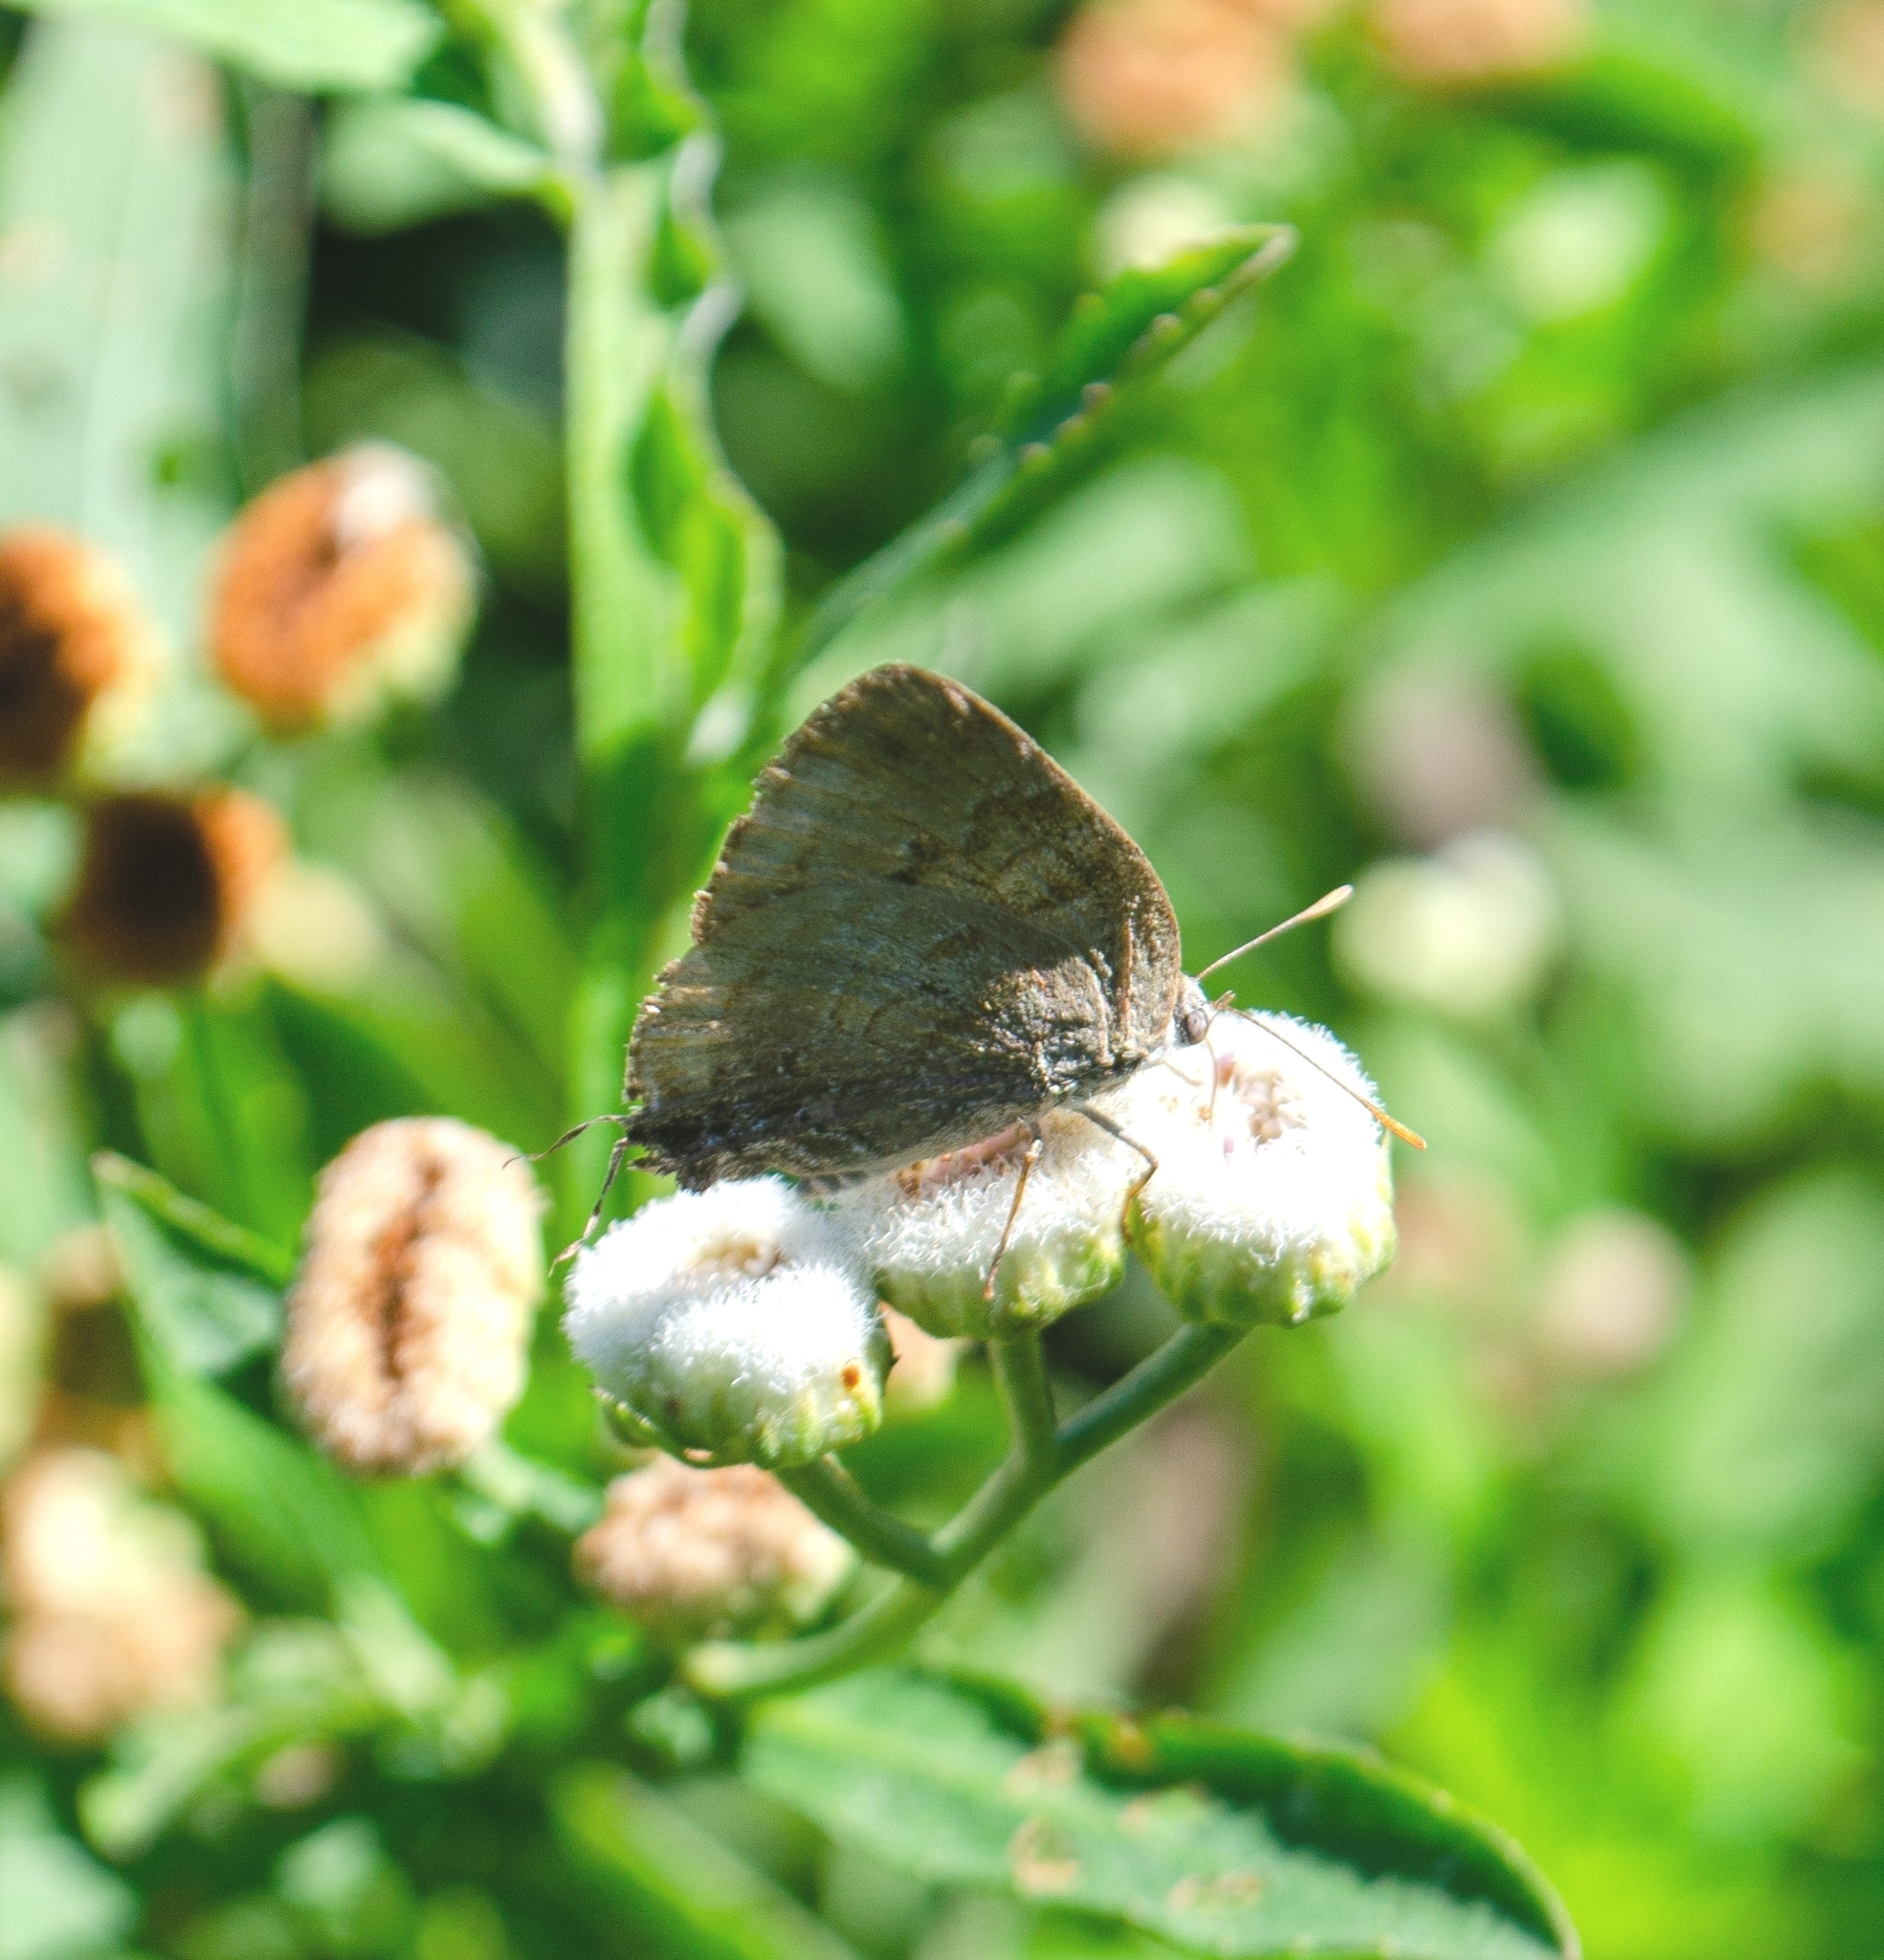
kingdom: Animalia
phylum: Arthropoda
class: Insecta
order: Lepidoptera
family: Lycaenidae
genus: Rekoa
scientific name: Rekoa palegon
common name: Gold-bordered hairstreak
